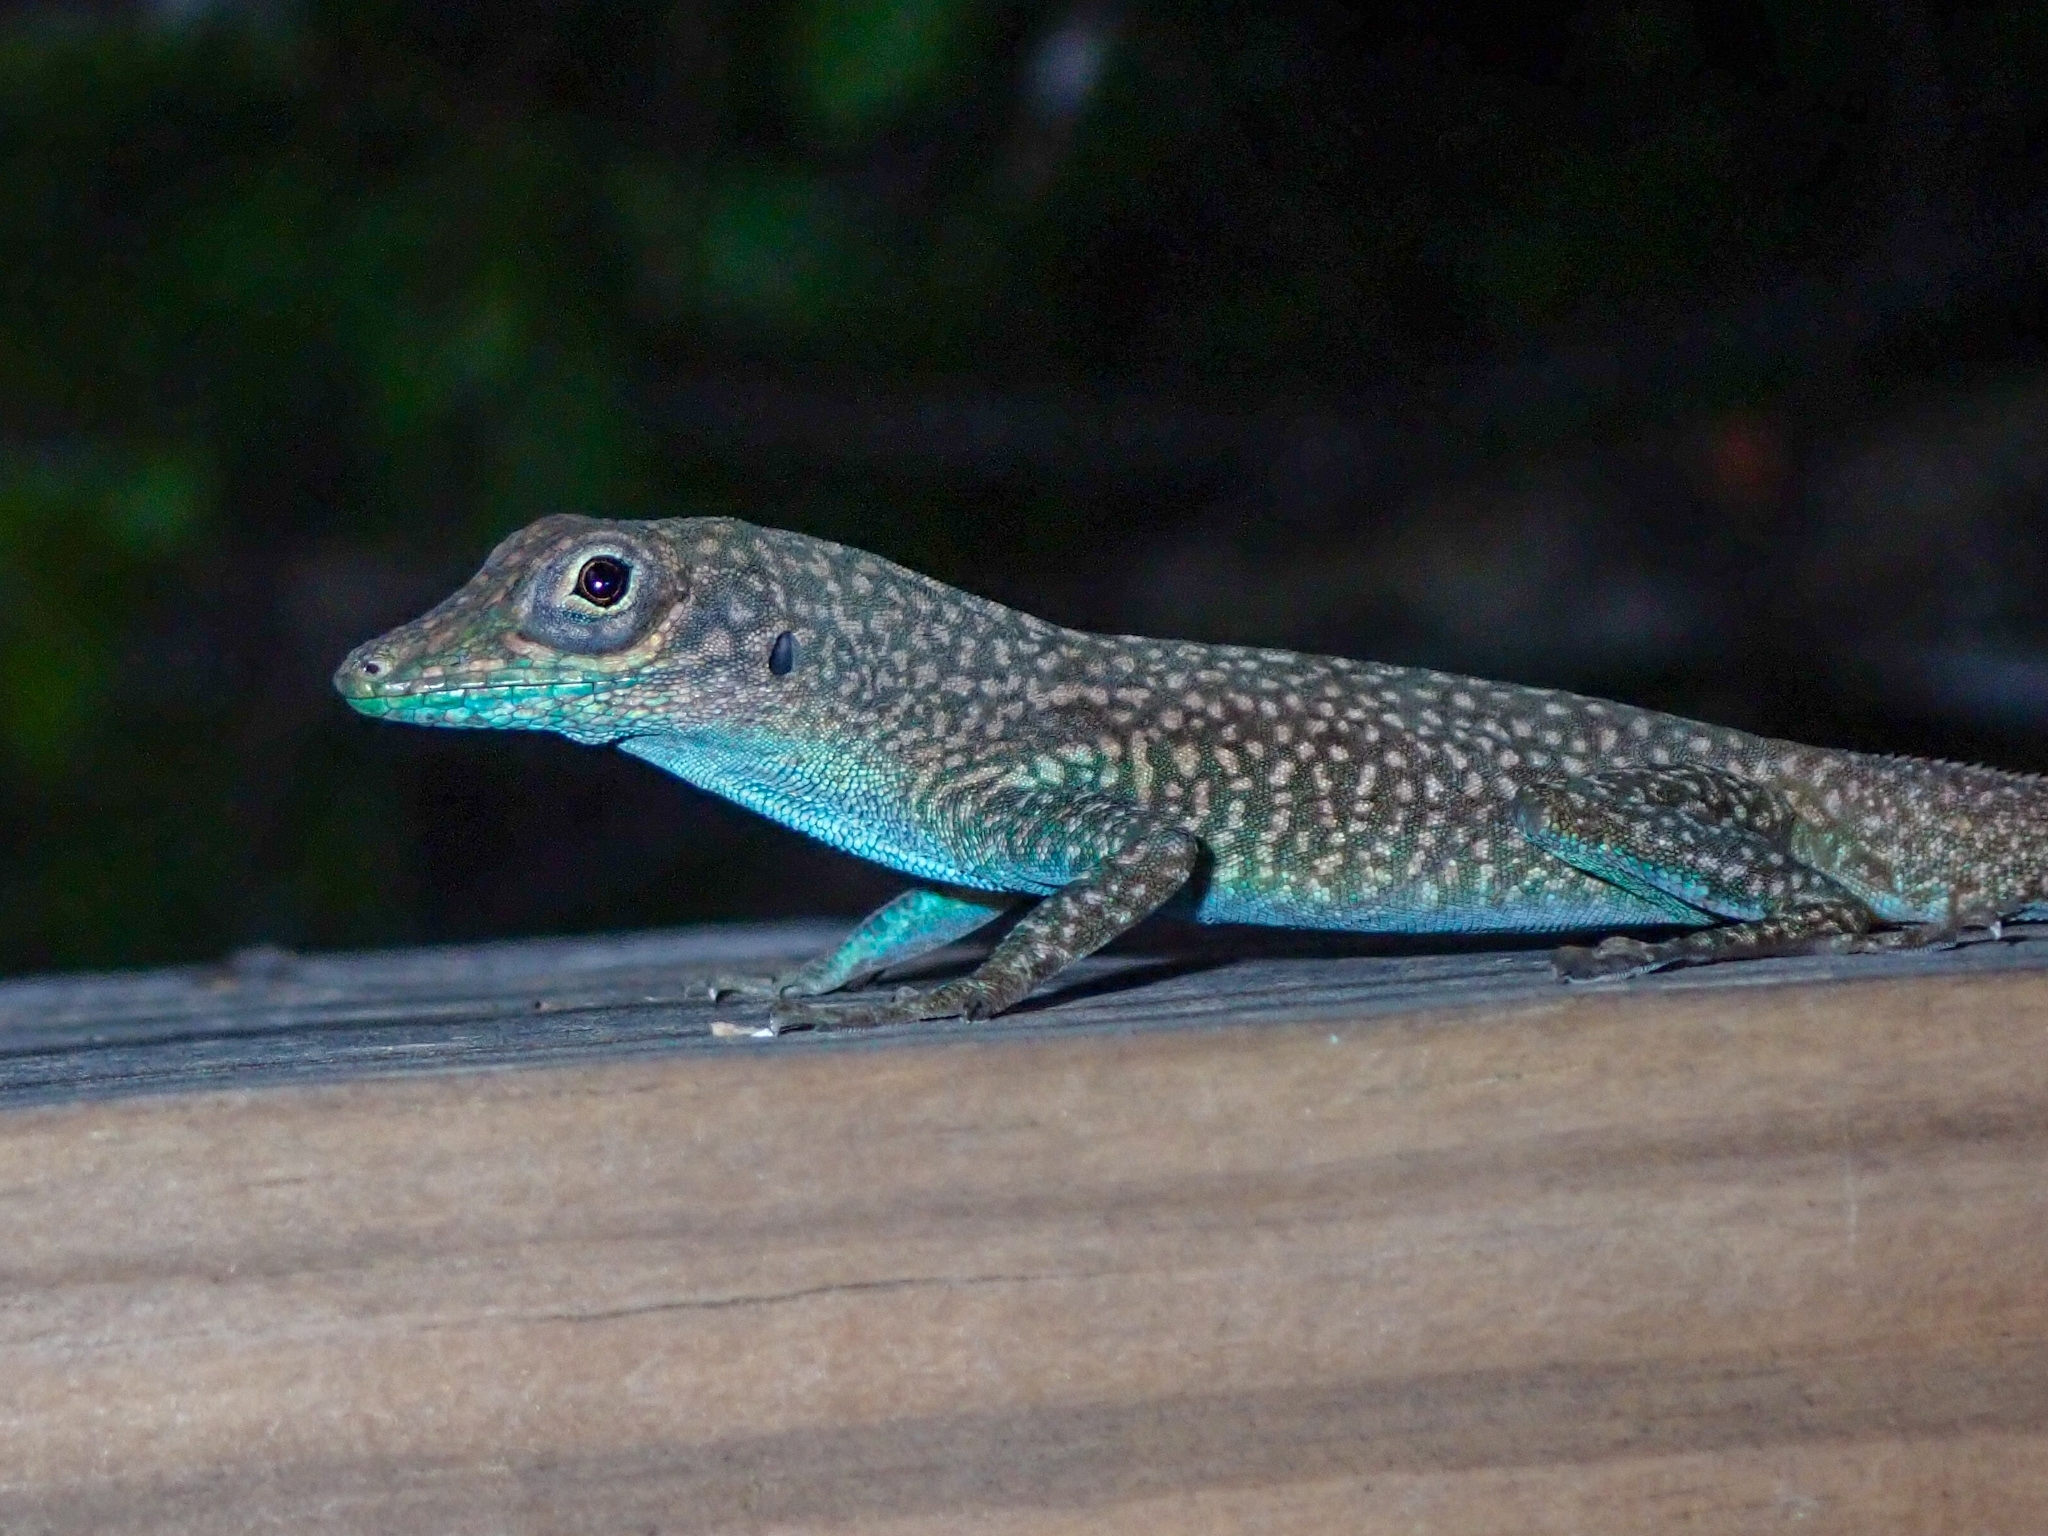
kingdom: Animalia
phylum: Chordata
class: Squamata
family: Dactyloidae
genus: Anolis
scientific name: Anolis conspersus
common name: Grand cayman anole
